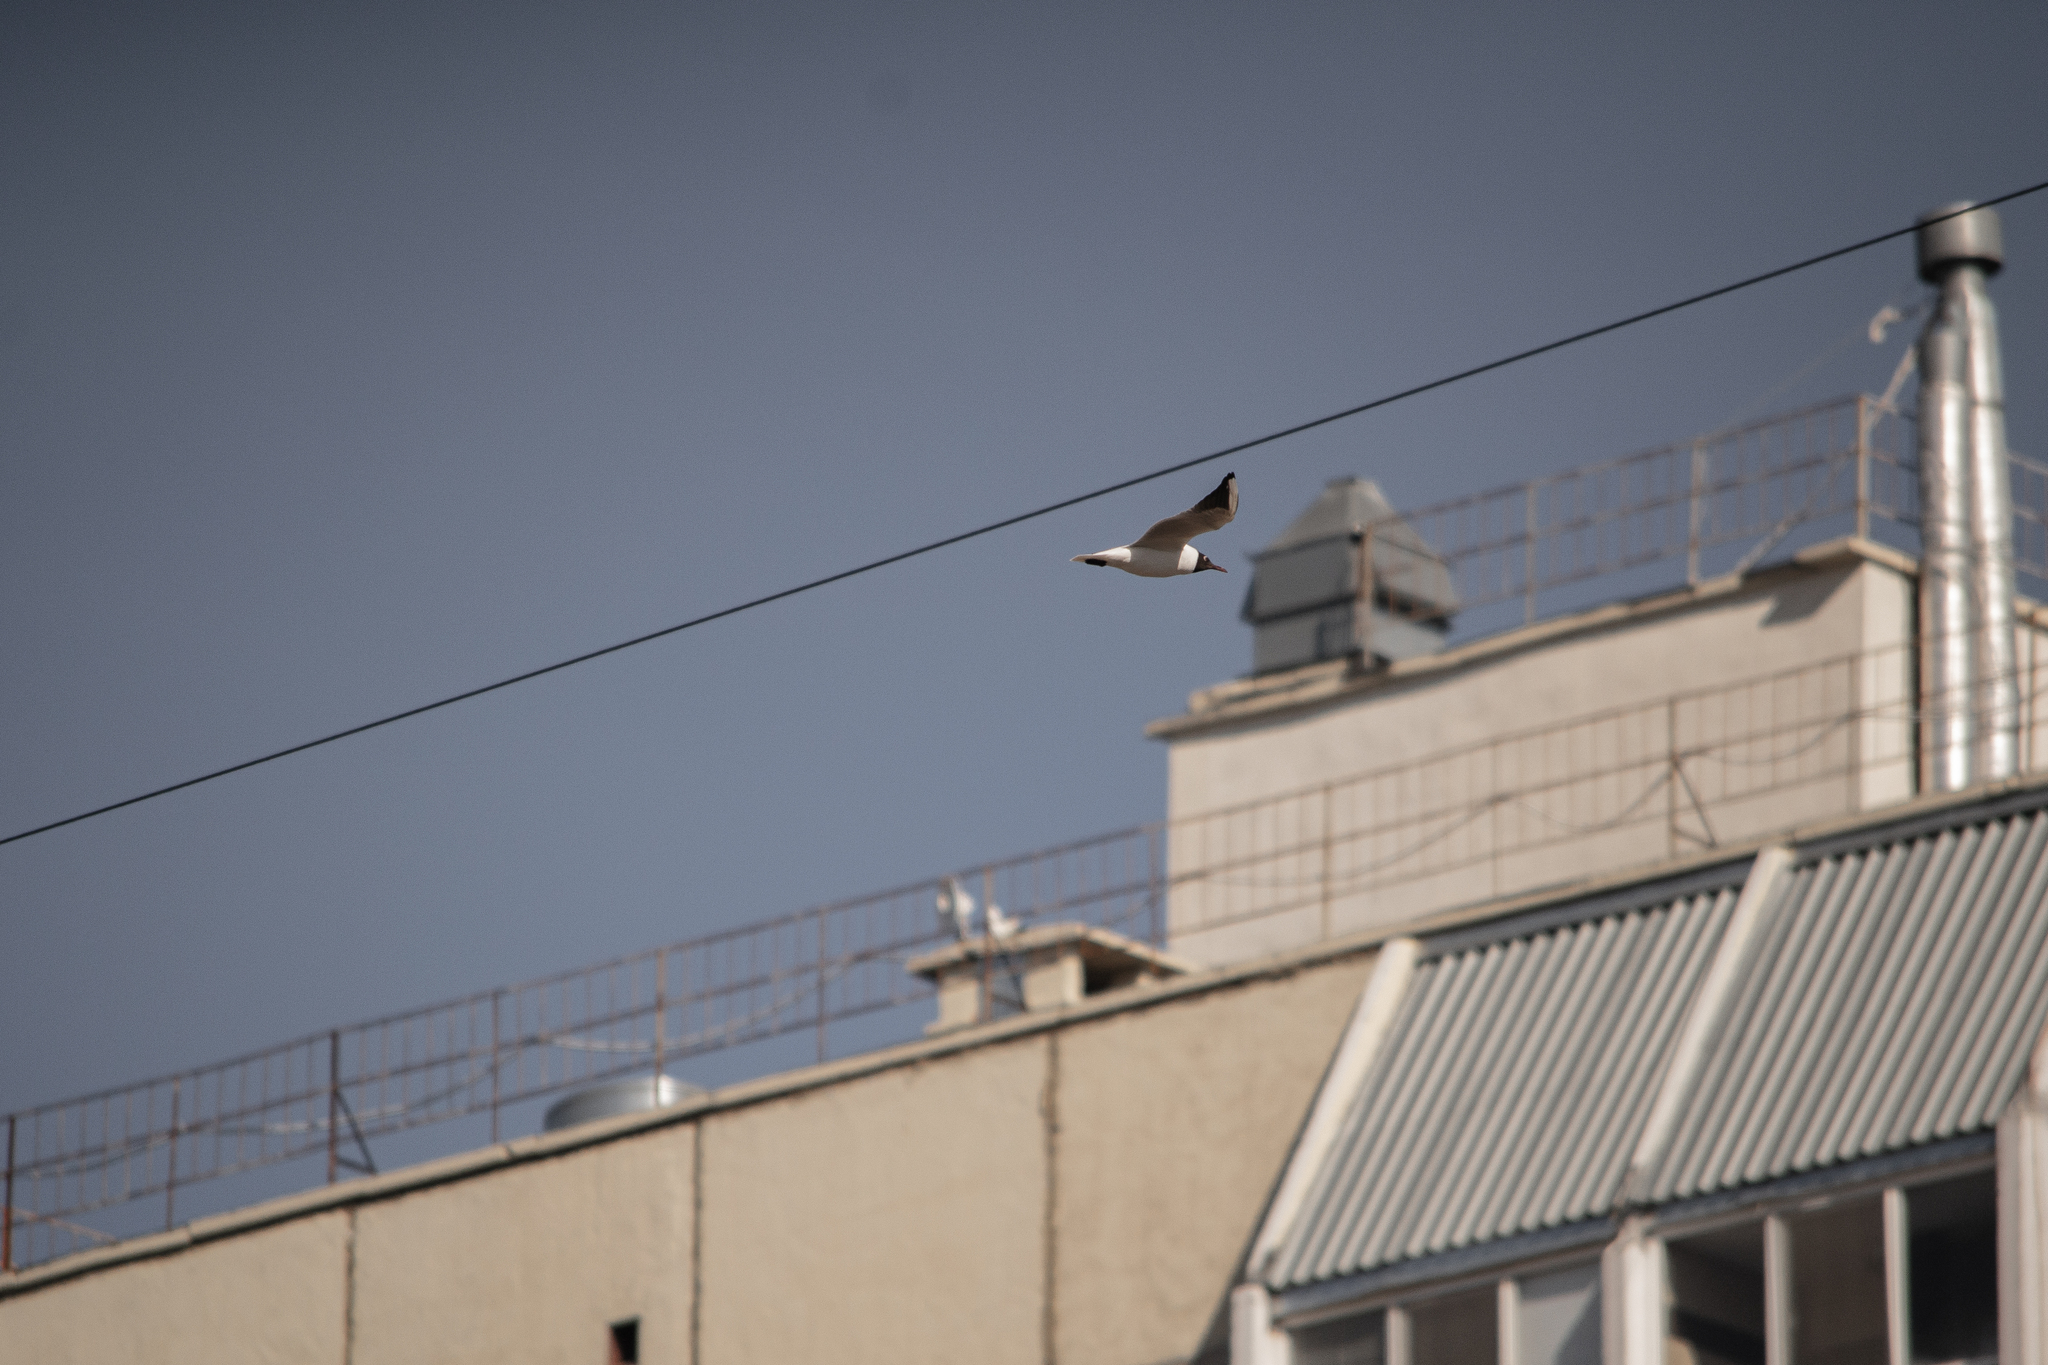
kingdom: Animalia
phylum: Chordata
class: Aves
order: Charadriiformes
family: Laridae
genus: Chroicocephalus
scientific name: Chroicocephalus ridibundus
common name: Black-headed gull
